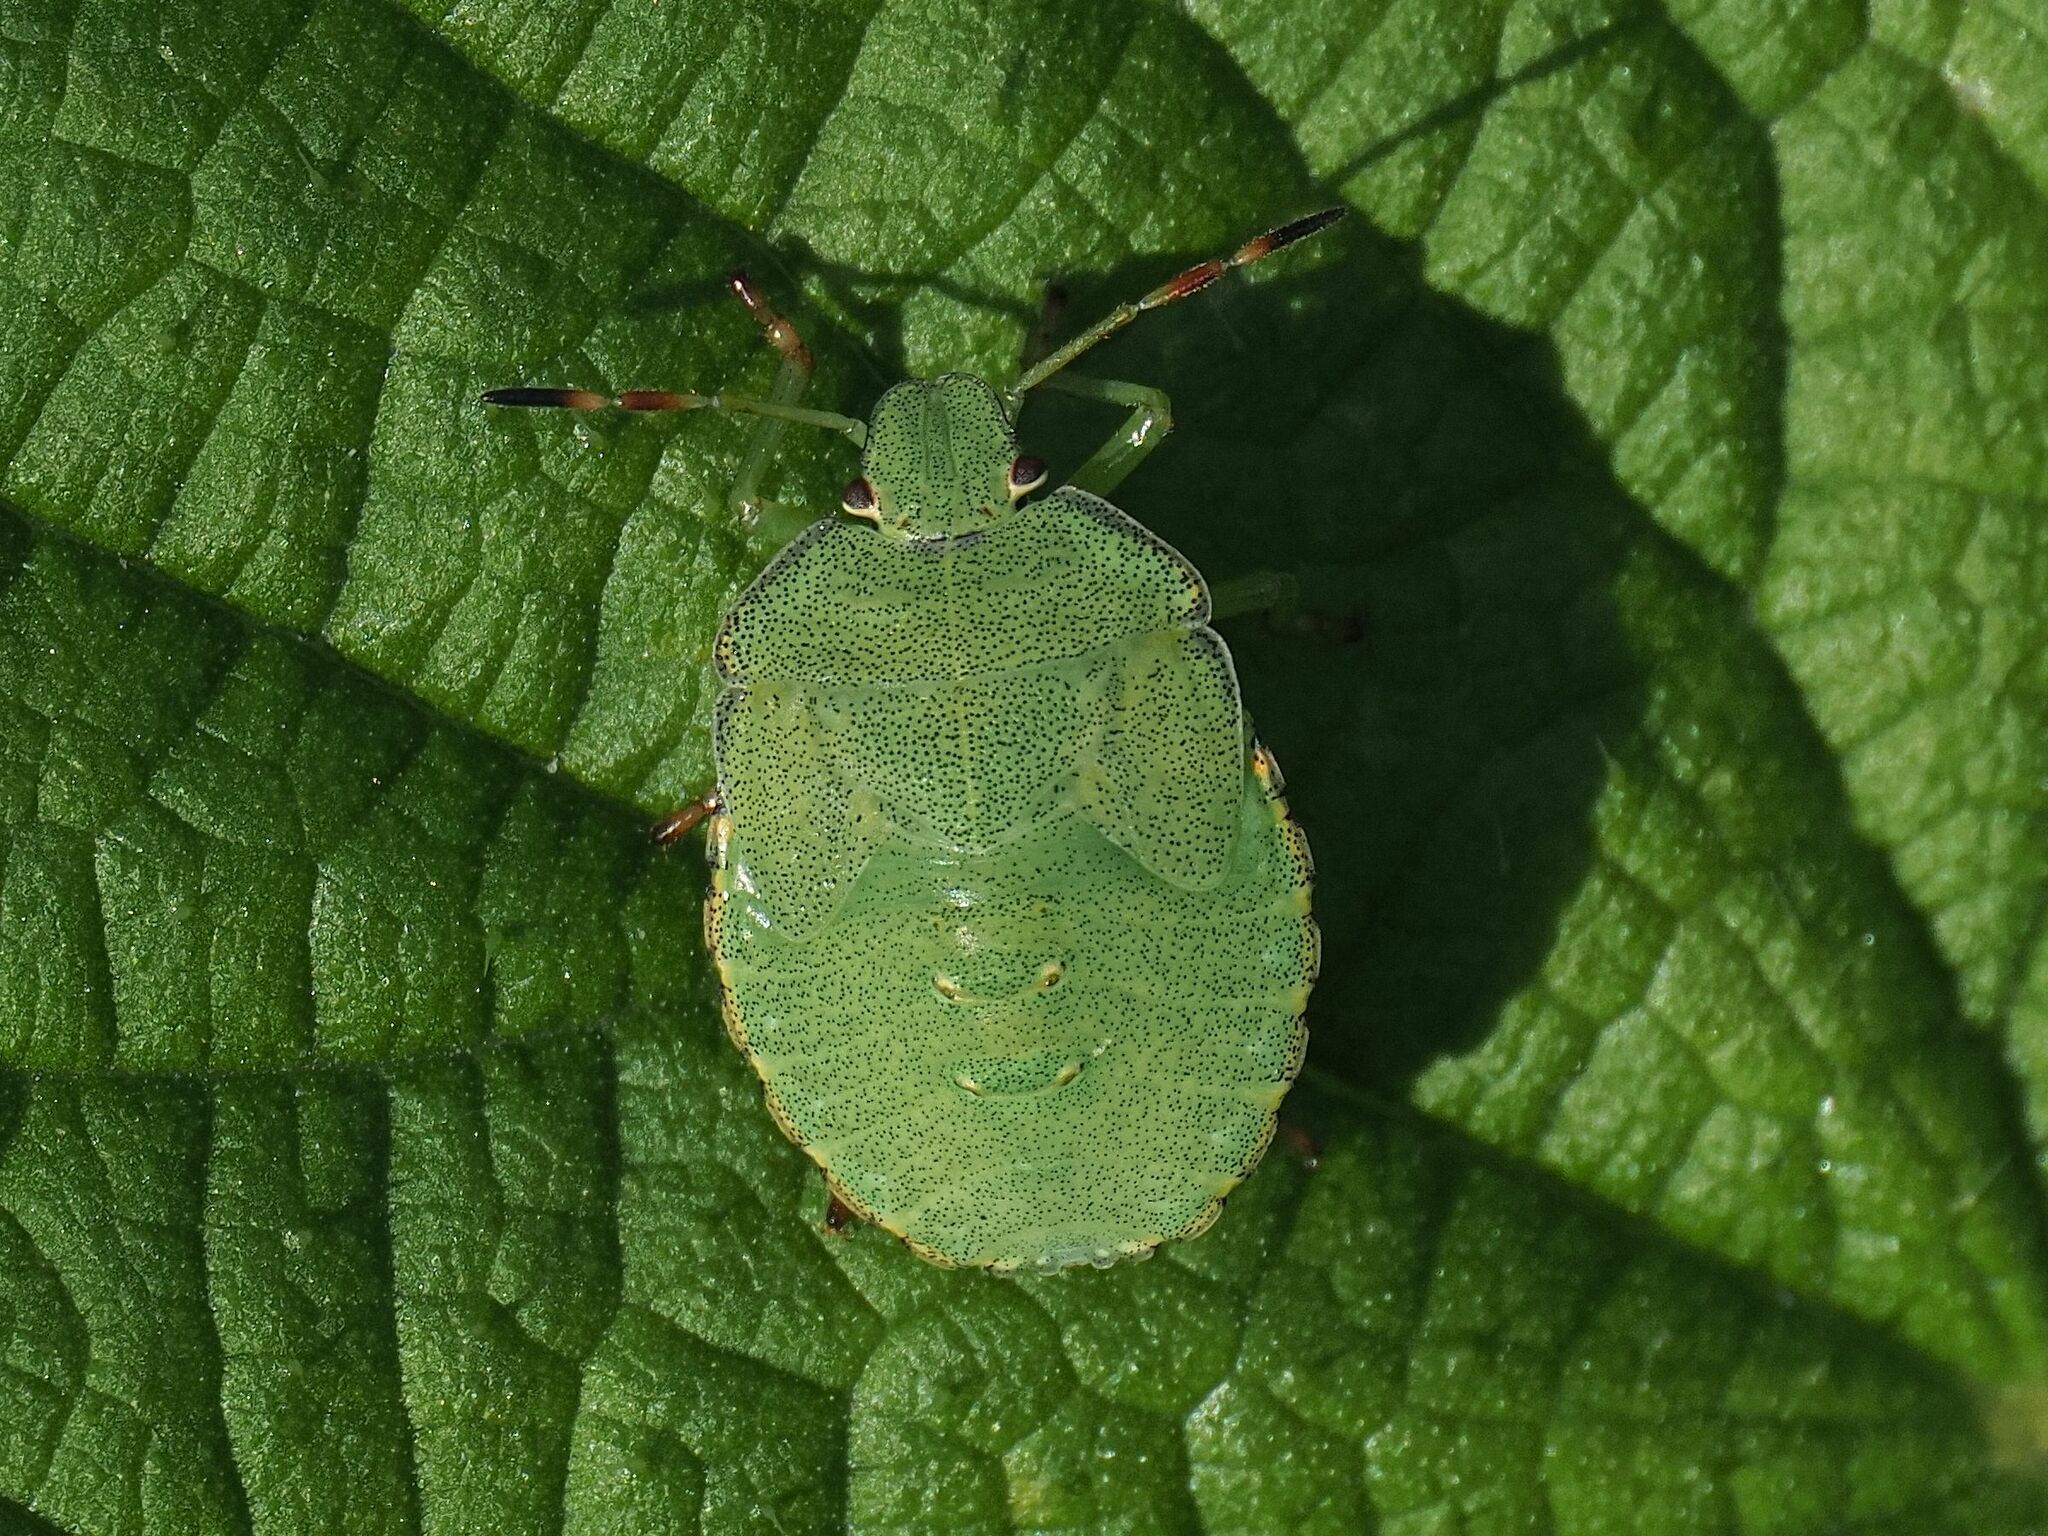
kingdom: Animalia
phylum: Arthropoda
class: Insecta
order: Hemiptera
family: Pentatomidae
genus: Palomena
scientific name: Palomena prasina
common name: Green shieldbug
